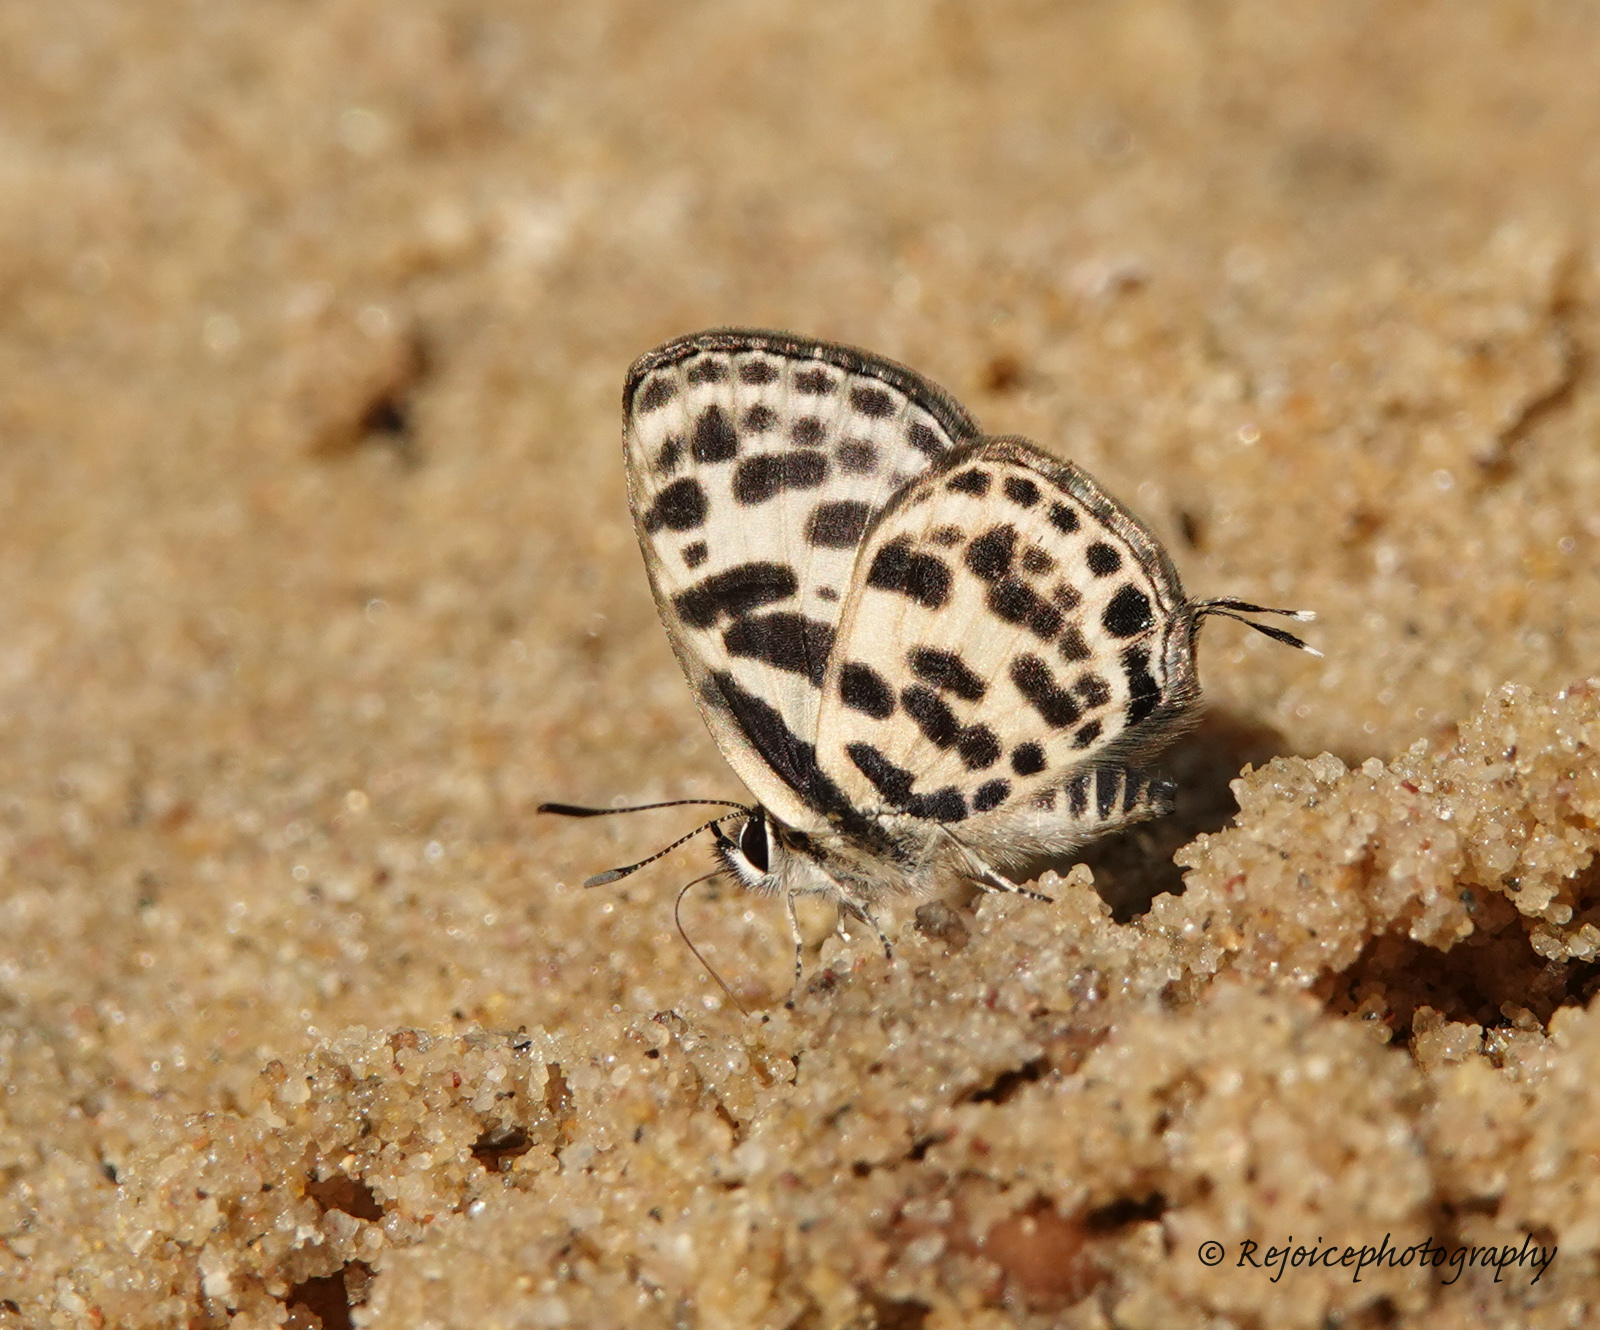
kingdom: Animalia
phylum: Arthropoda
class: Insecta
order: Lepidoptera
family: Lycaenidae
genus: Tarucus
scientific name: Tarucus
